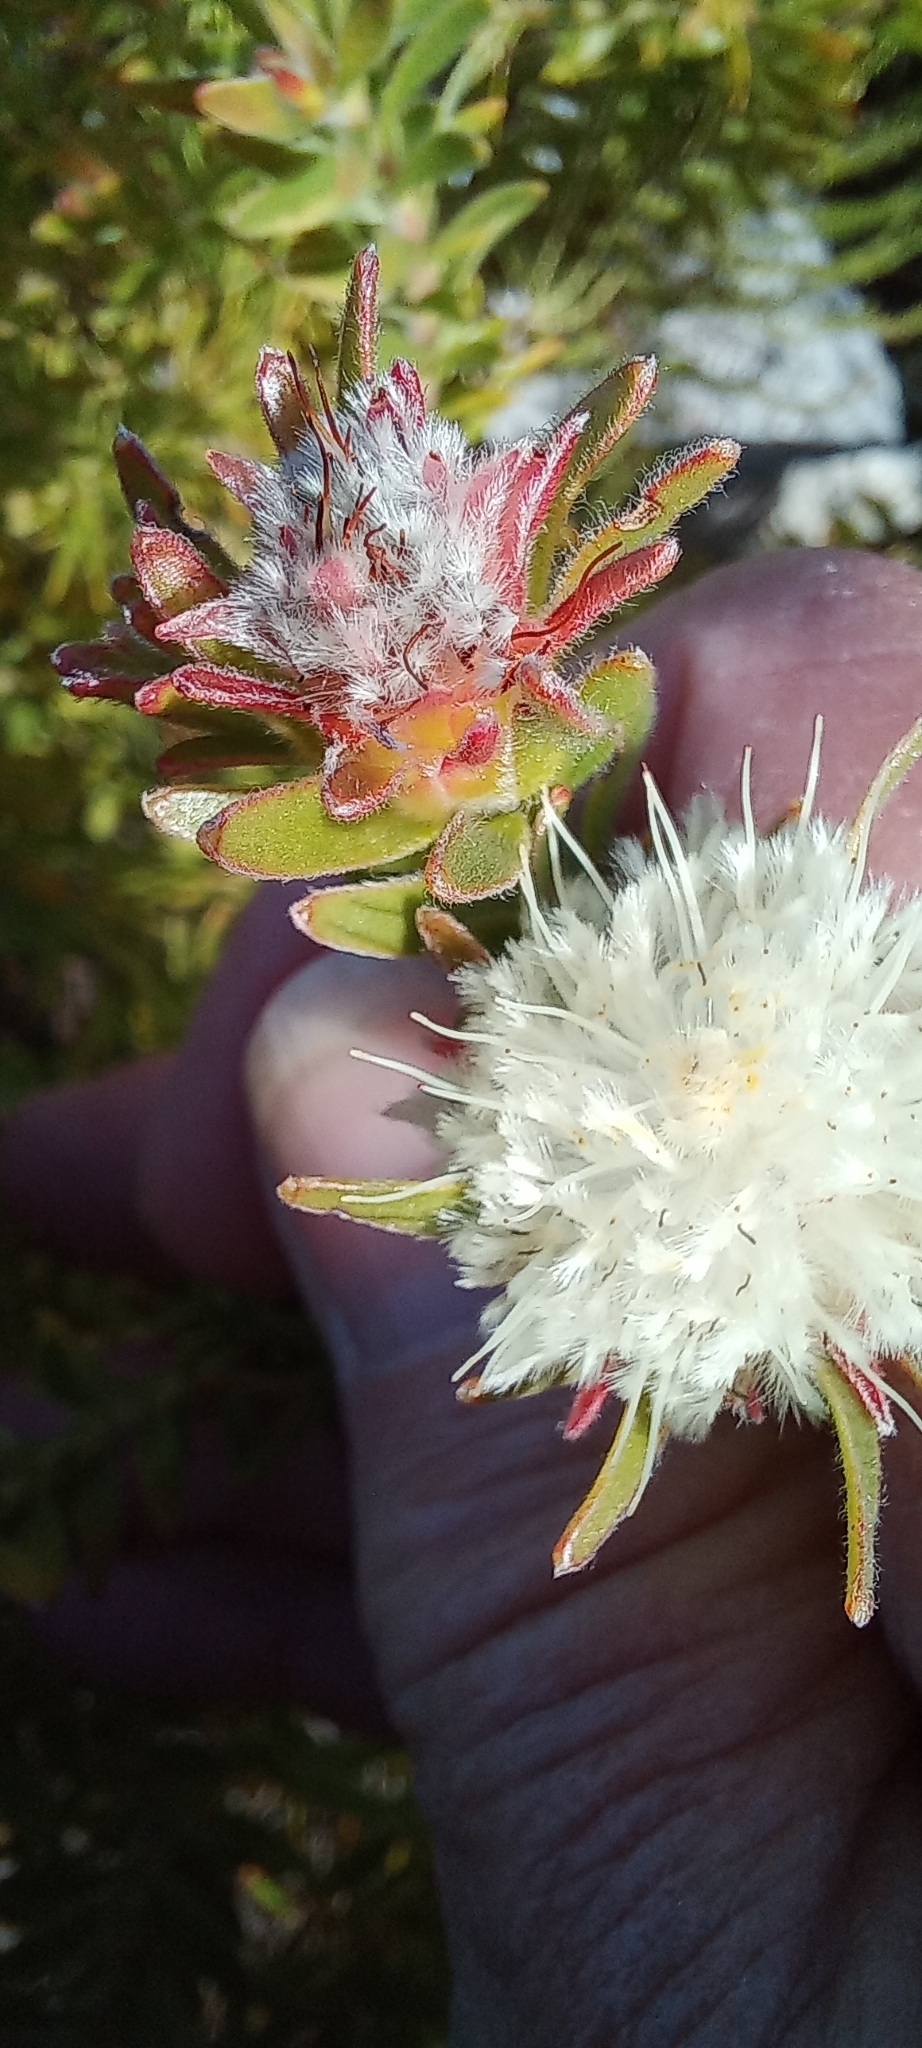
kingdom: Plantae
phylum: Tracheophyta
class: Magnoliopsida
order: Proteales
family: Proteaceae
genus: Diastella
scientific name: Diastella fraterna
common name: Palmiet silkypuff
